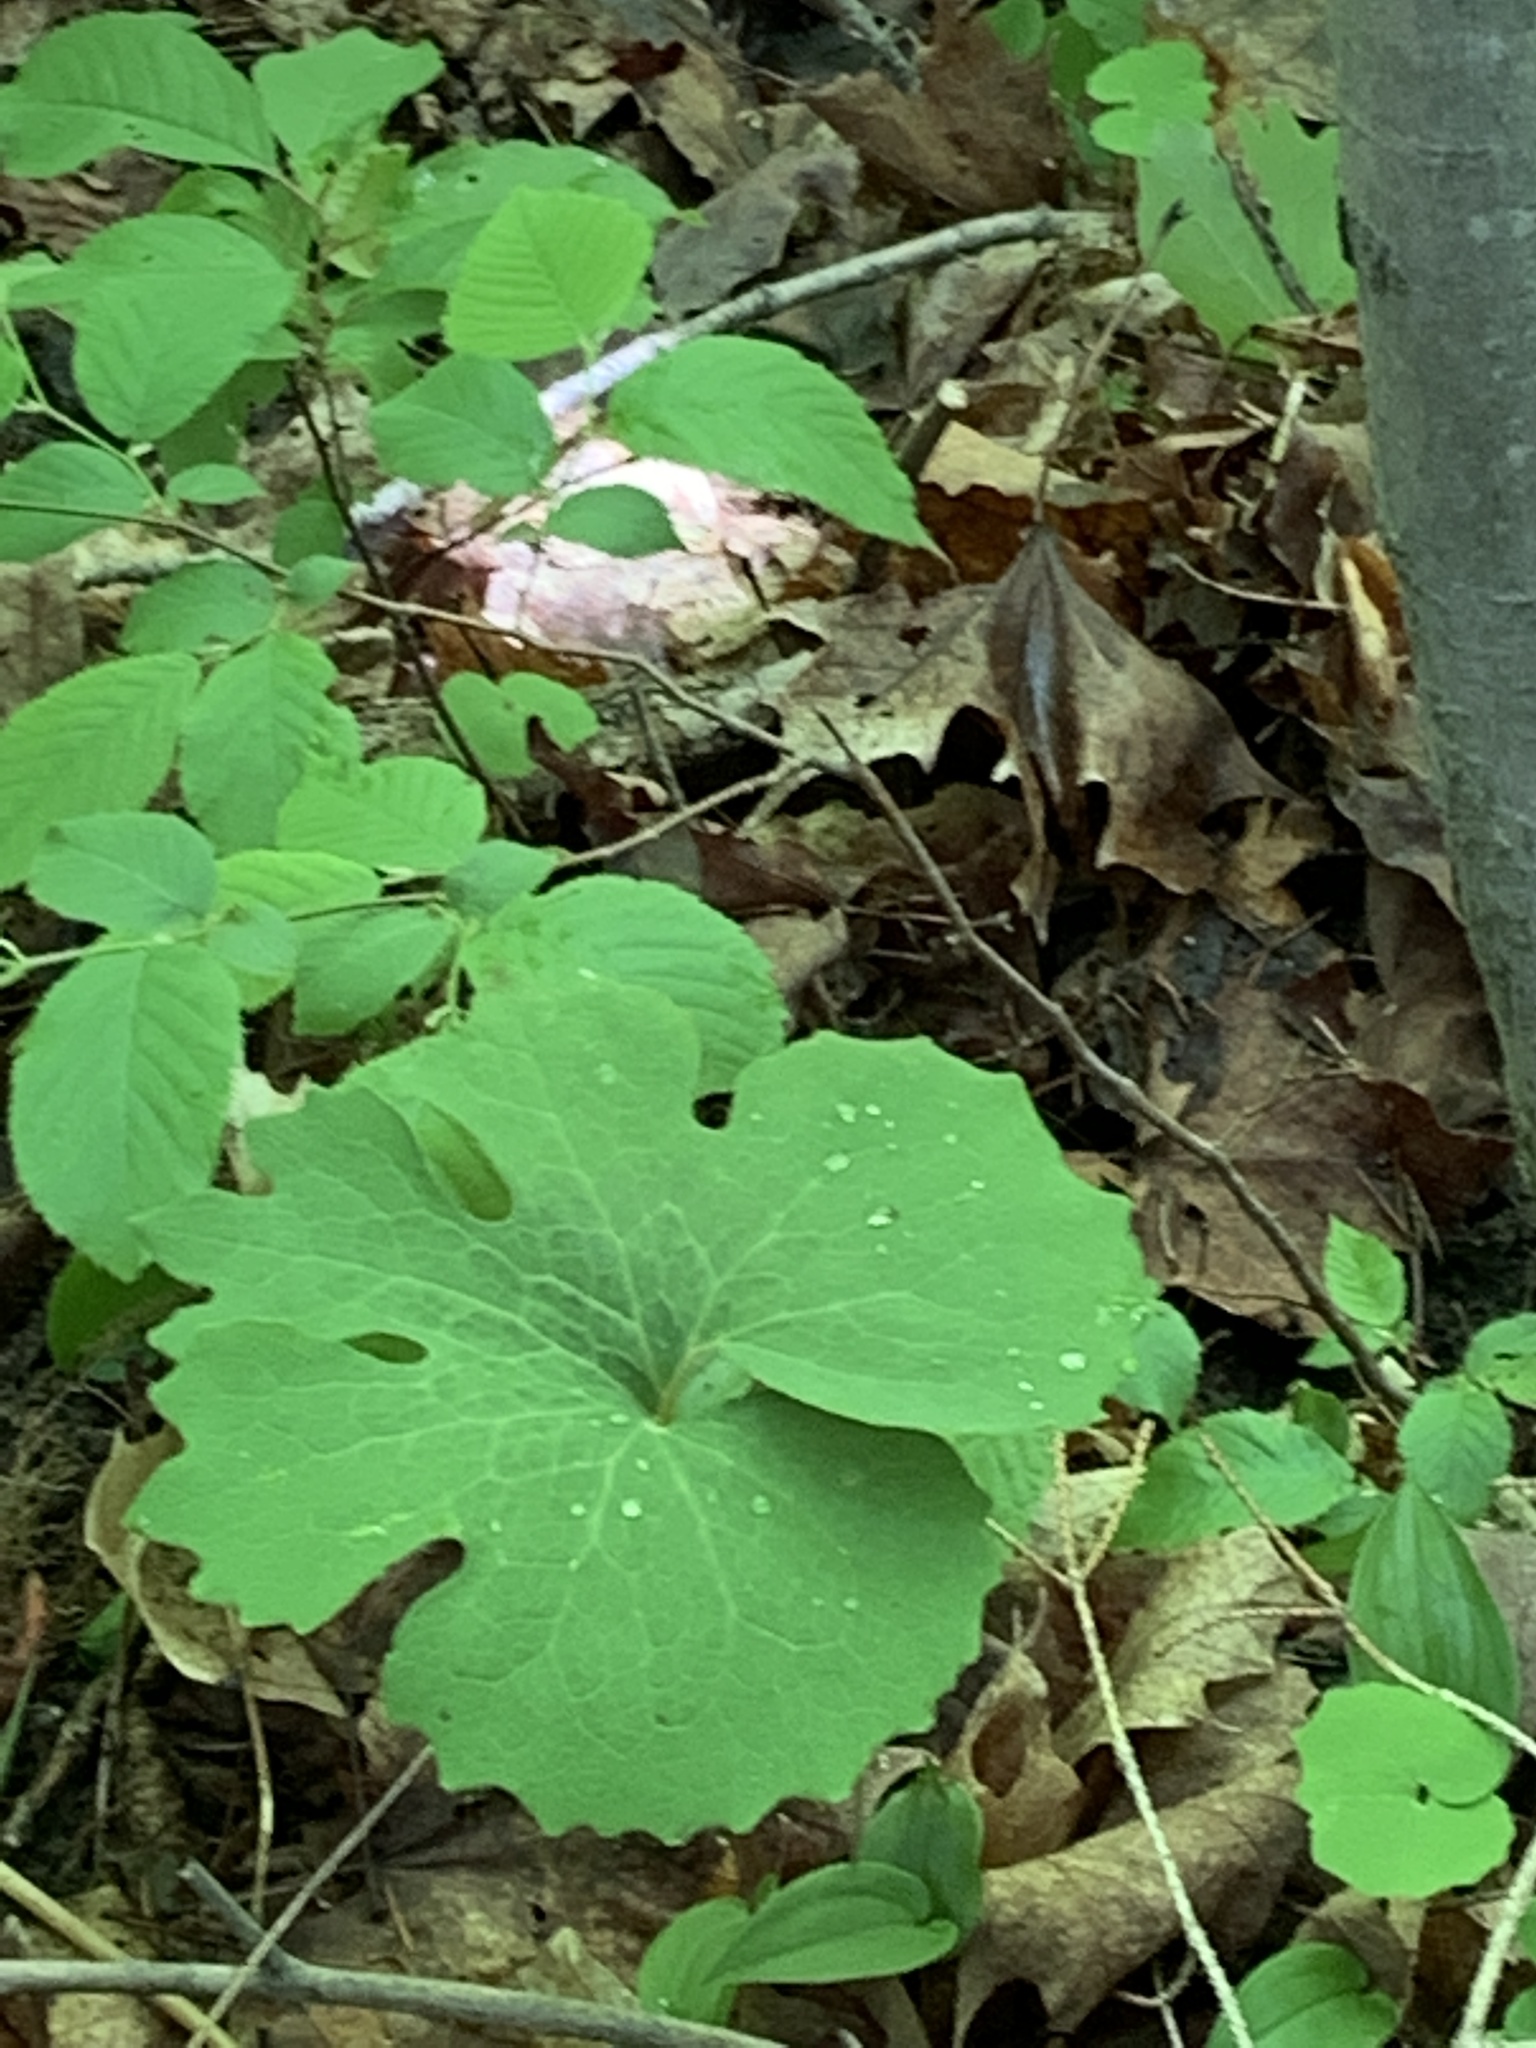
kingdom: Plantae
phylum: Tracheophyta
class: Magnoliopsida
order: Ranunculales
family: Papaveraceae
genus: Sanguinaria
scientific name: Sanguinaria canadensis
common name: Bloodroot
